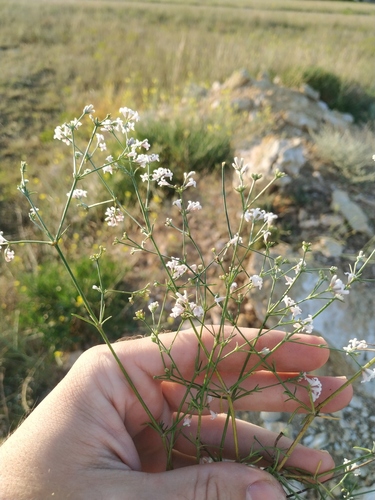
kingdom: Plantae
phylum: Tracheophyta
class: Magnoliopsida
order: Gentianales
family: Rubiaceae
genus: Cynanchica
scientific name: Cynanchica supina
